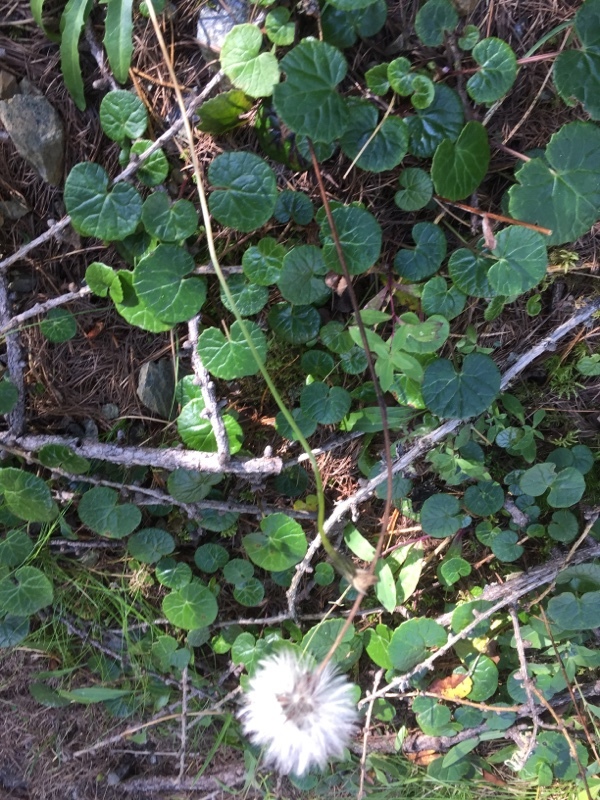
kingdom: Plantae
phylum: Tracheophyta
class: Magnoliopsida
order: Asterales
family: Asteraceae
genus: Homogyne
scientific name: Homogyne alpina
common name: Purple colt's-foot
